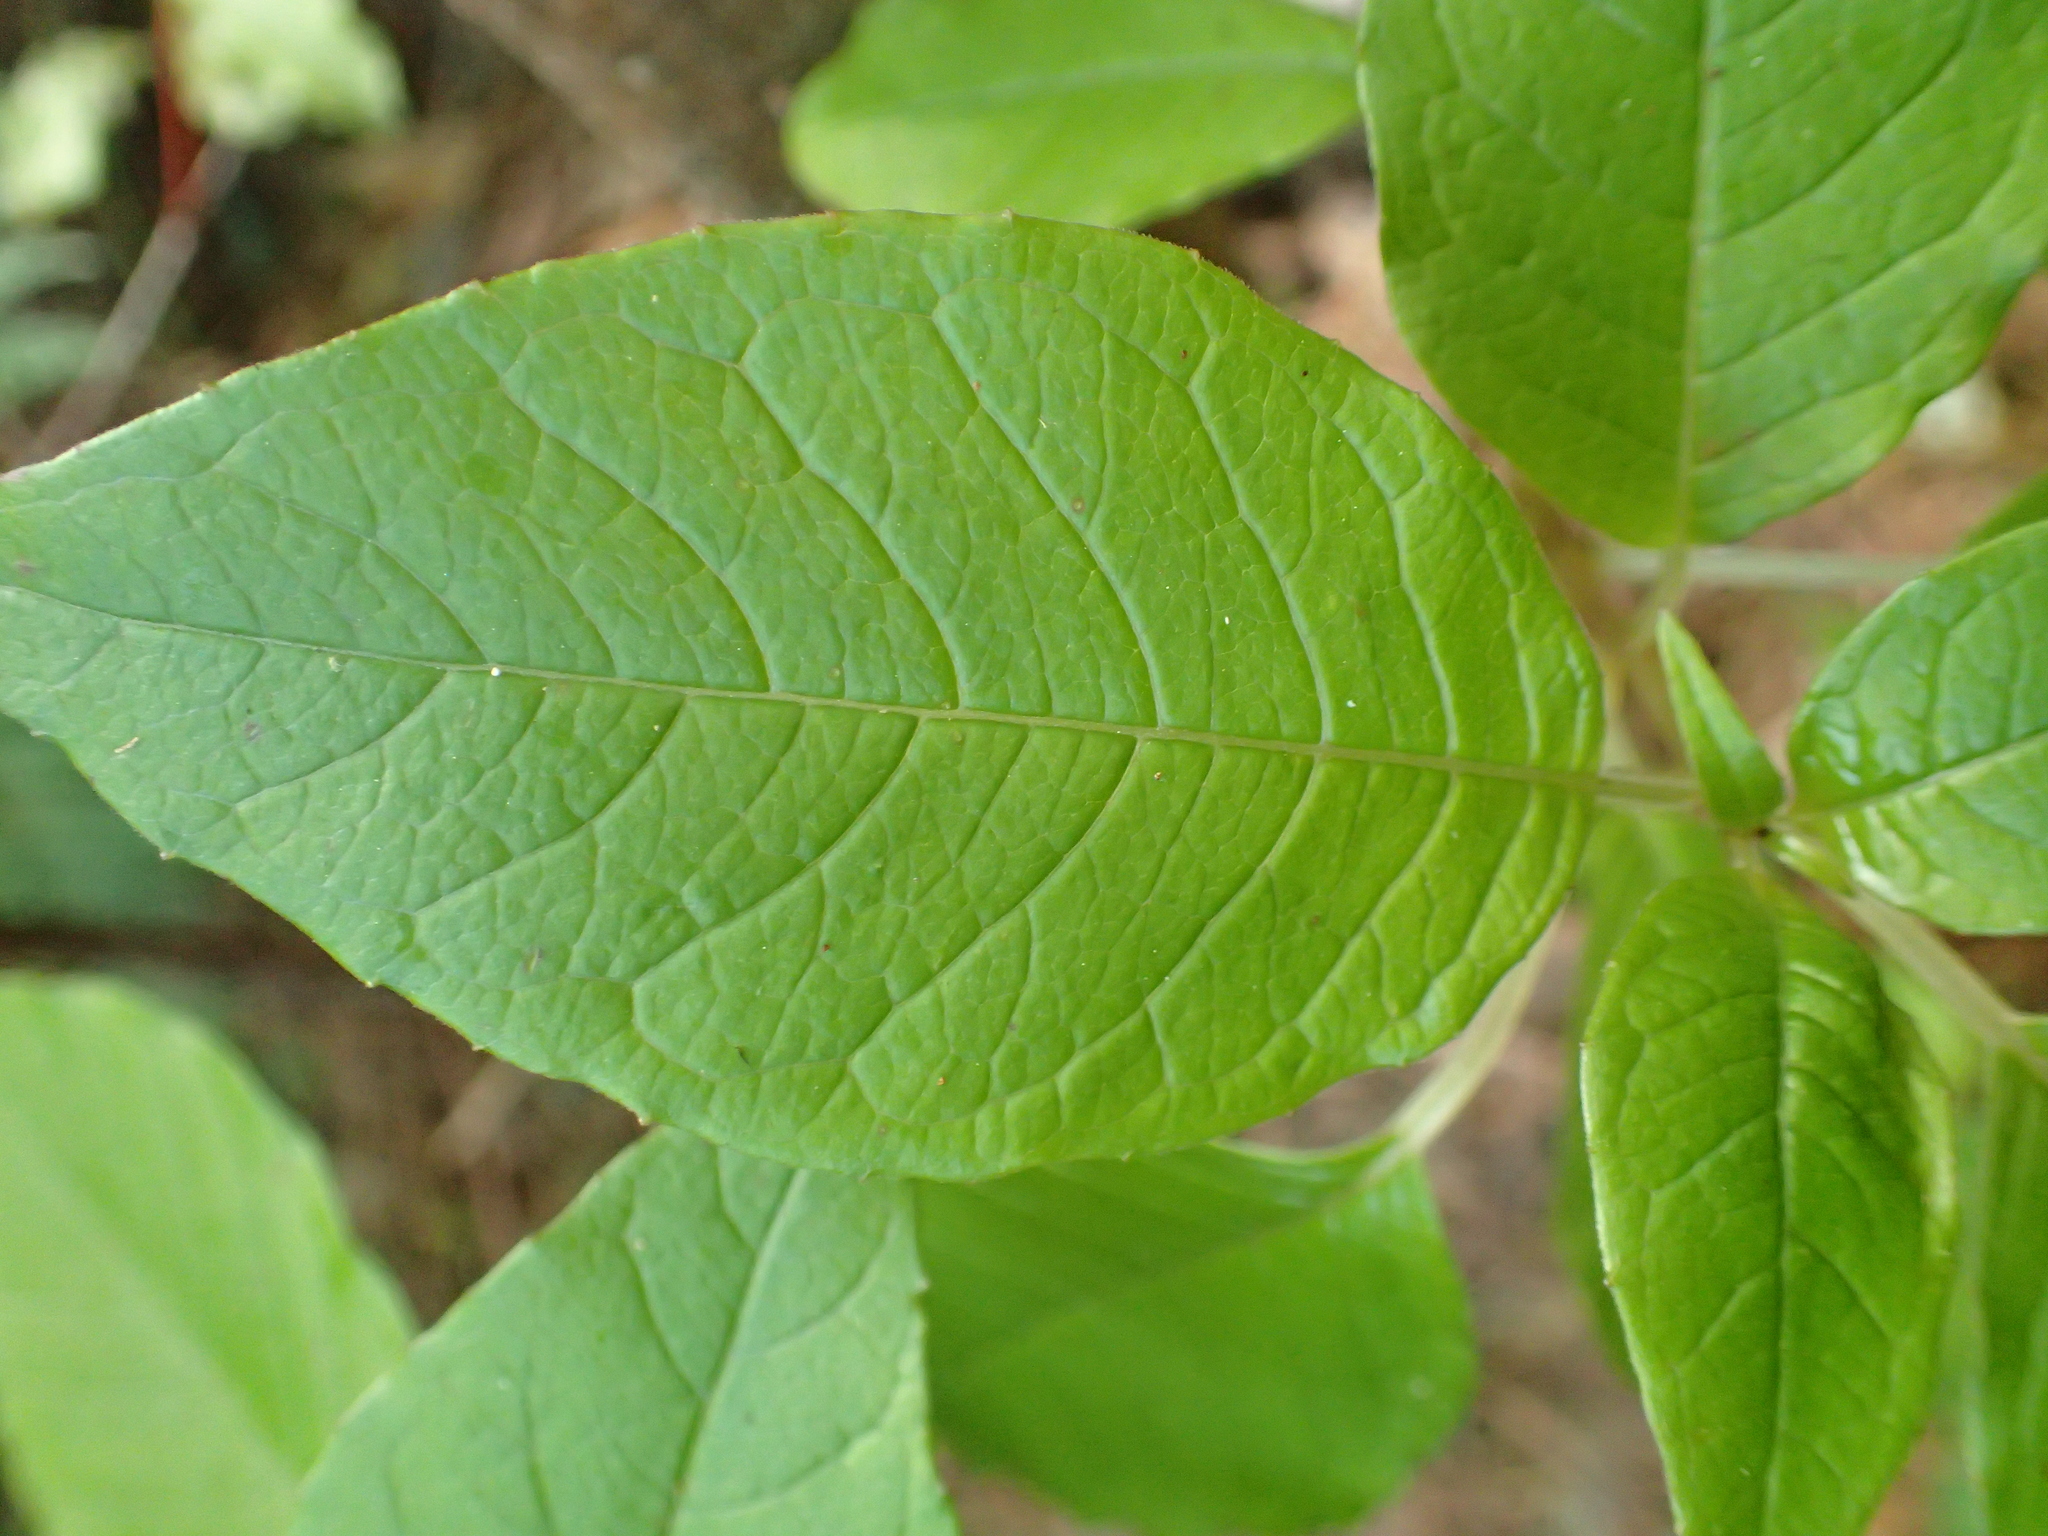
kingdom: Plantae
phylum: Tracheophyta
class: Magnoliopsida
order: Myrtales
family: Onagraceae
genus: Fuchsia
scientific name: Fuchsia excorticata
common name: Tree fuchsia
